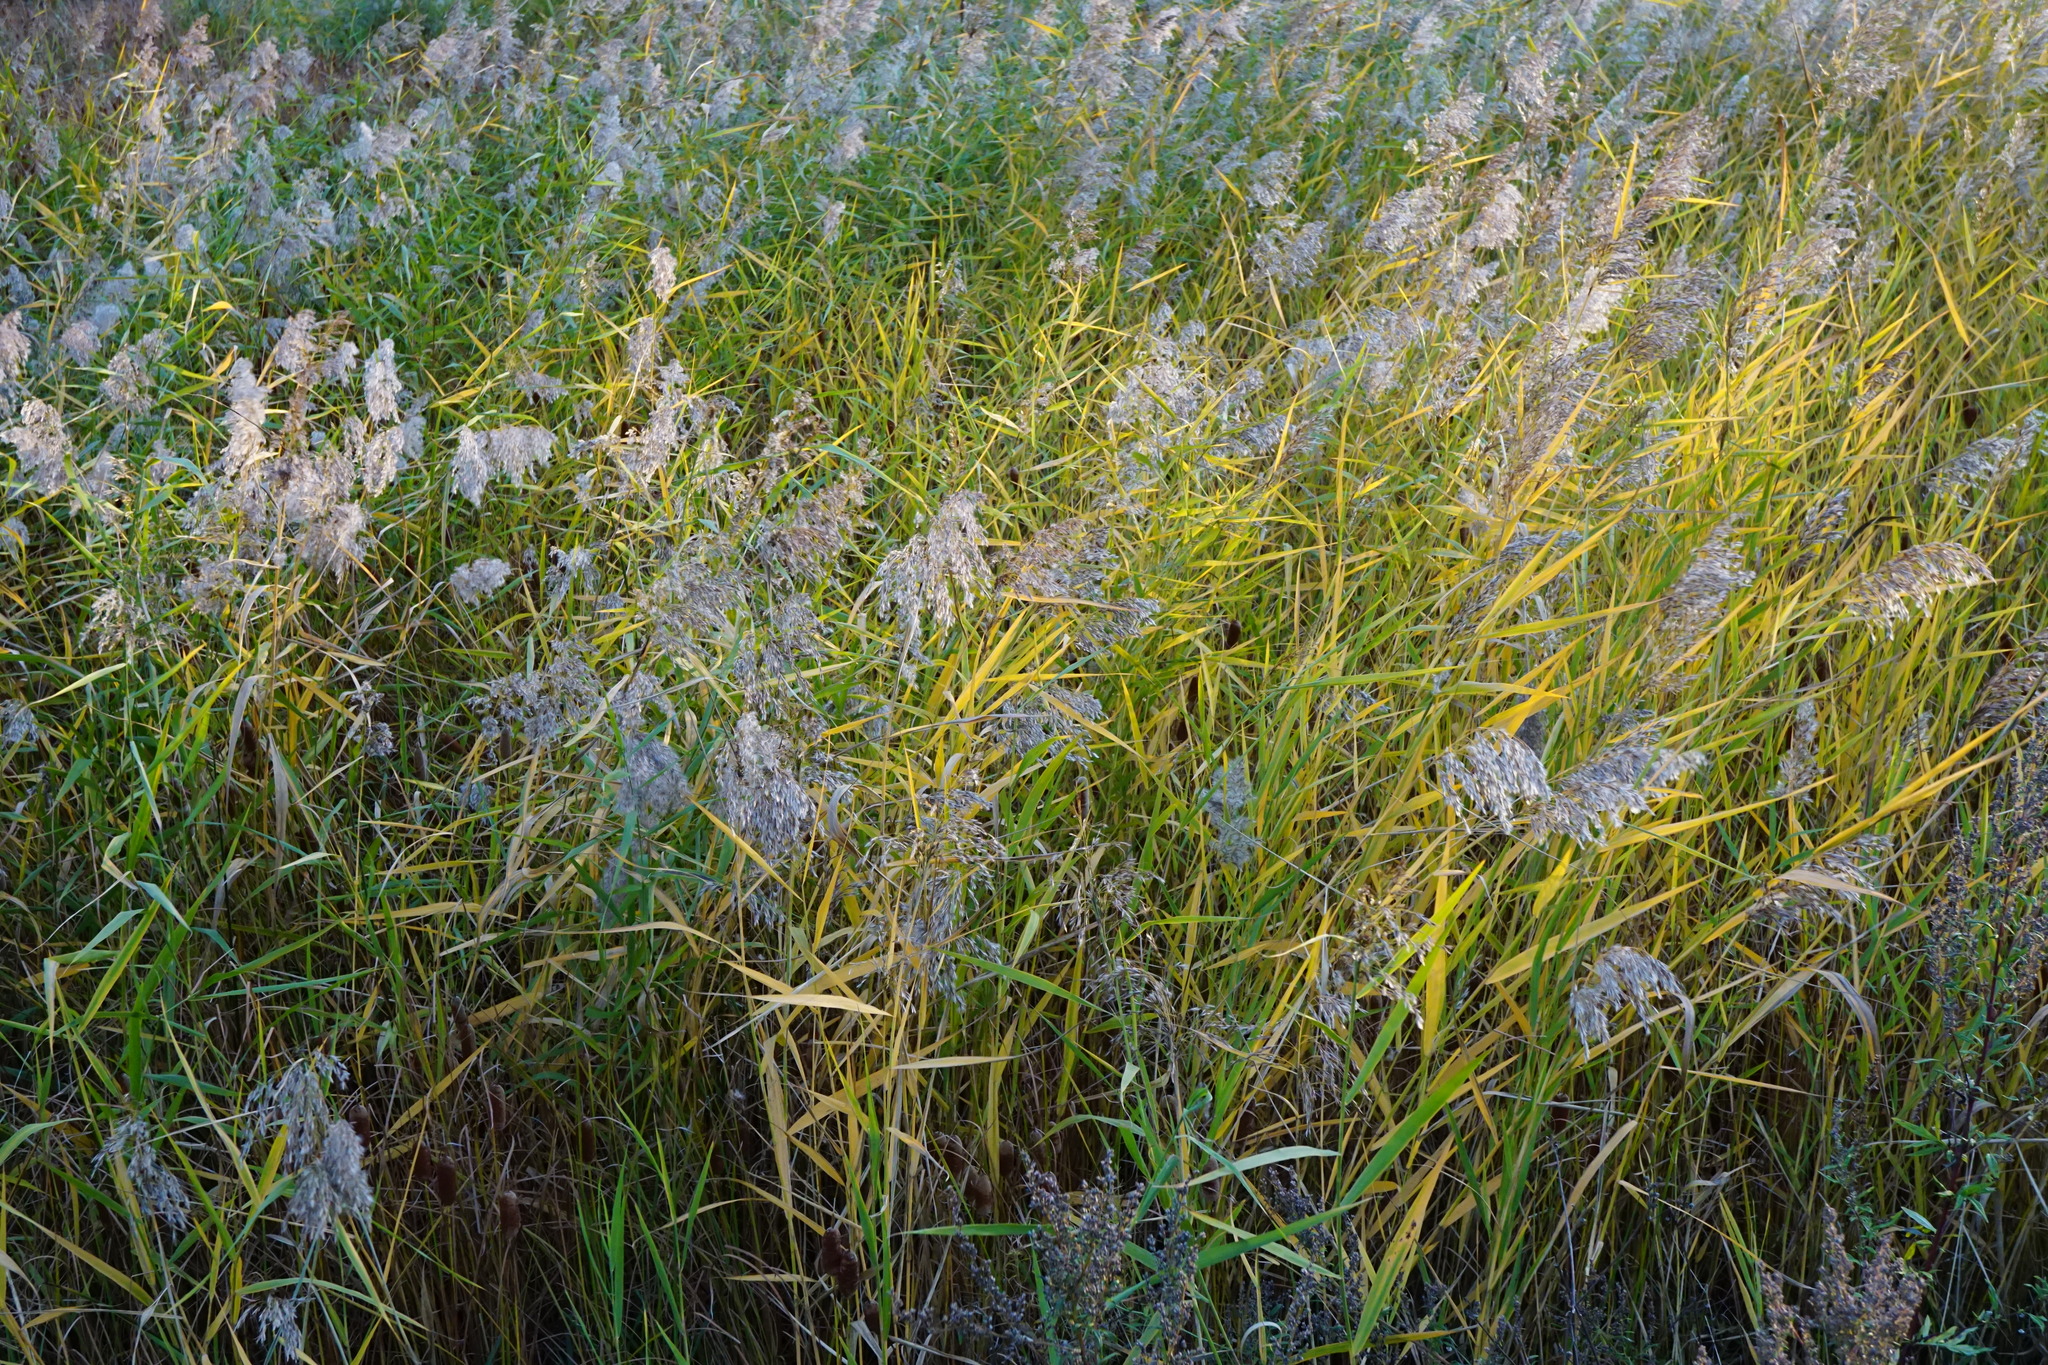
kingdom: Plantae
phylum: Tracheophyta
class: Liliopsida
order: Poales
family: Poaceae
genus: Phragmites
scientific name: Phragmites australis
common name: Common reed
